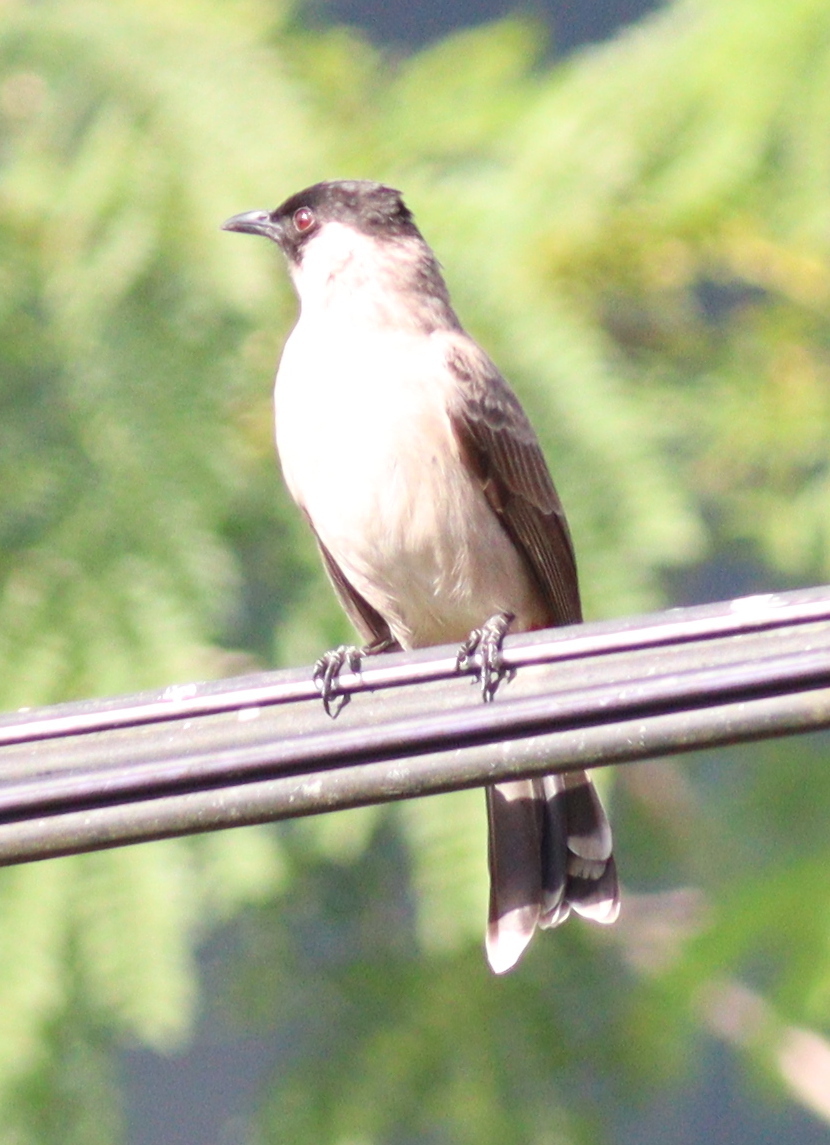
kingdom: Animalia
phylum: Chordata
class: Aves
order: Passeriformes
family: Pycnonotidae
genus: Pycnonotus
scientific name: Pycnonotus aurigaster
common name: Sooty-headed bulbul
